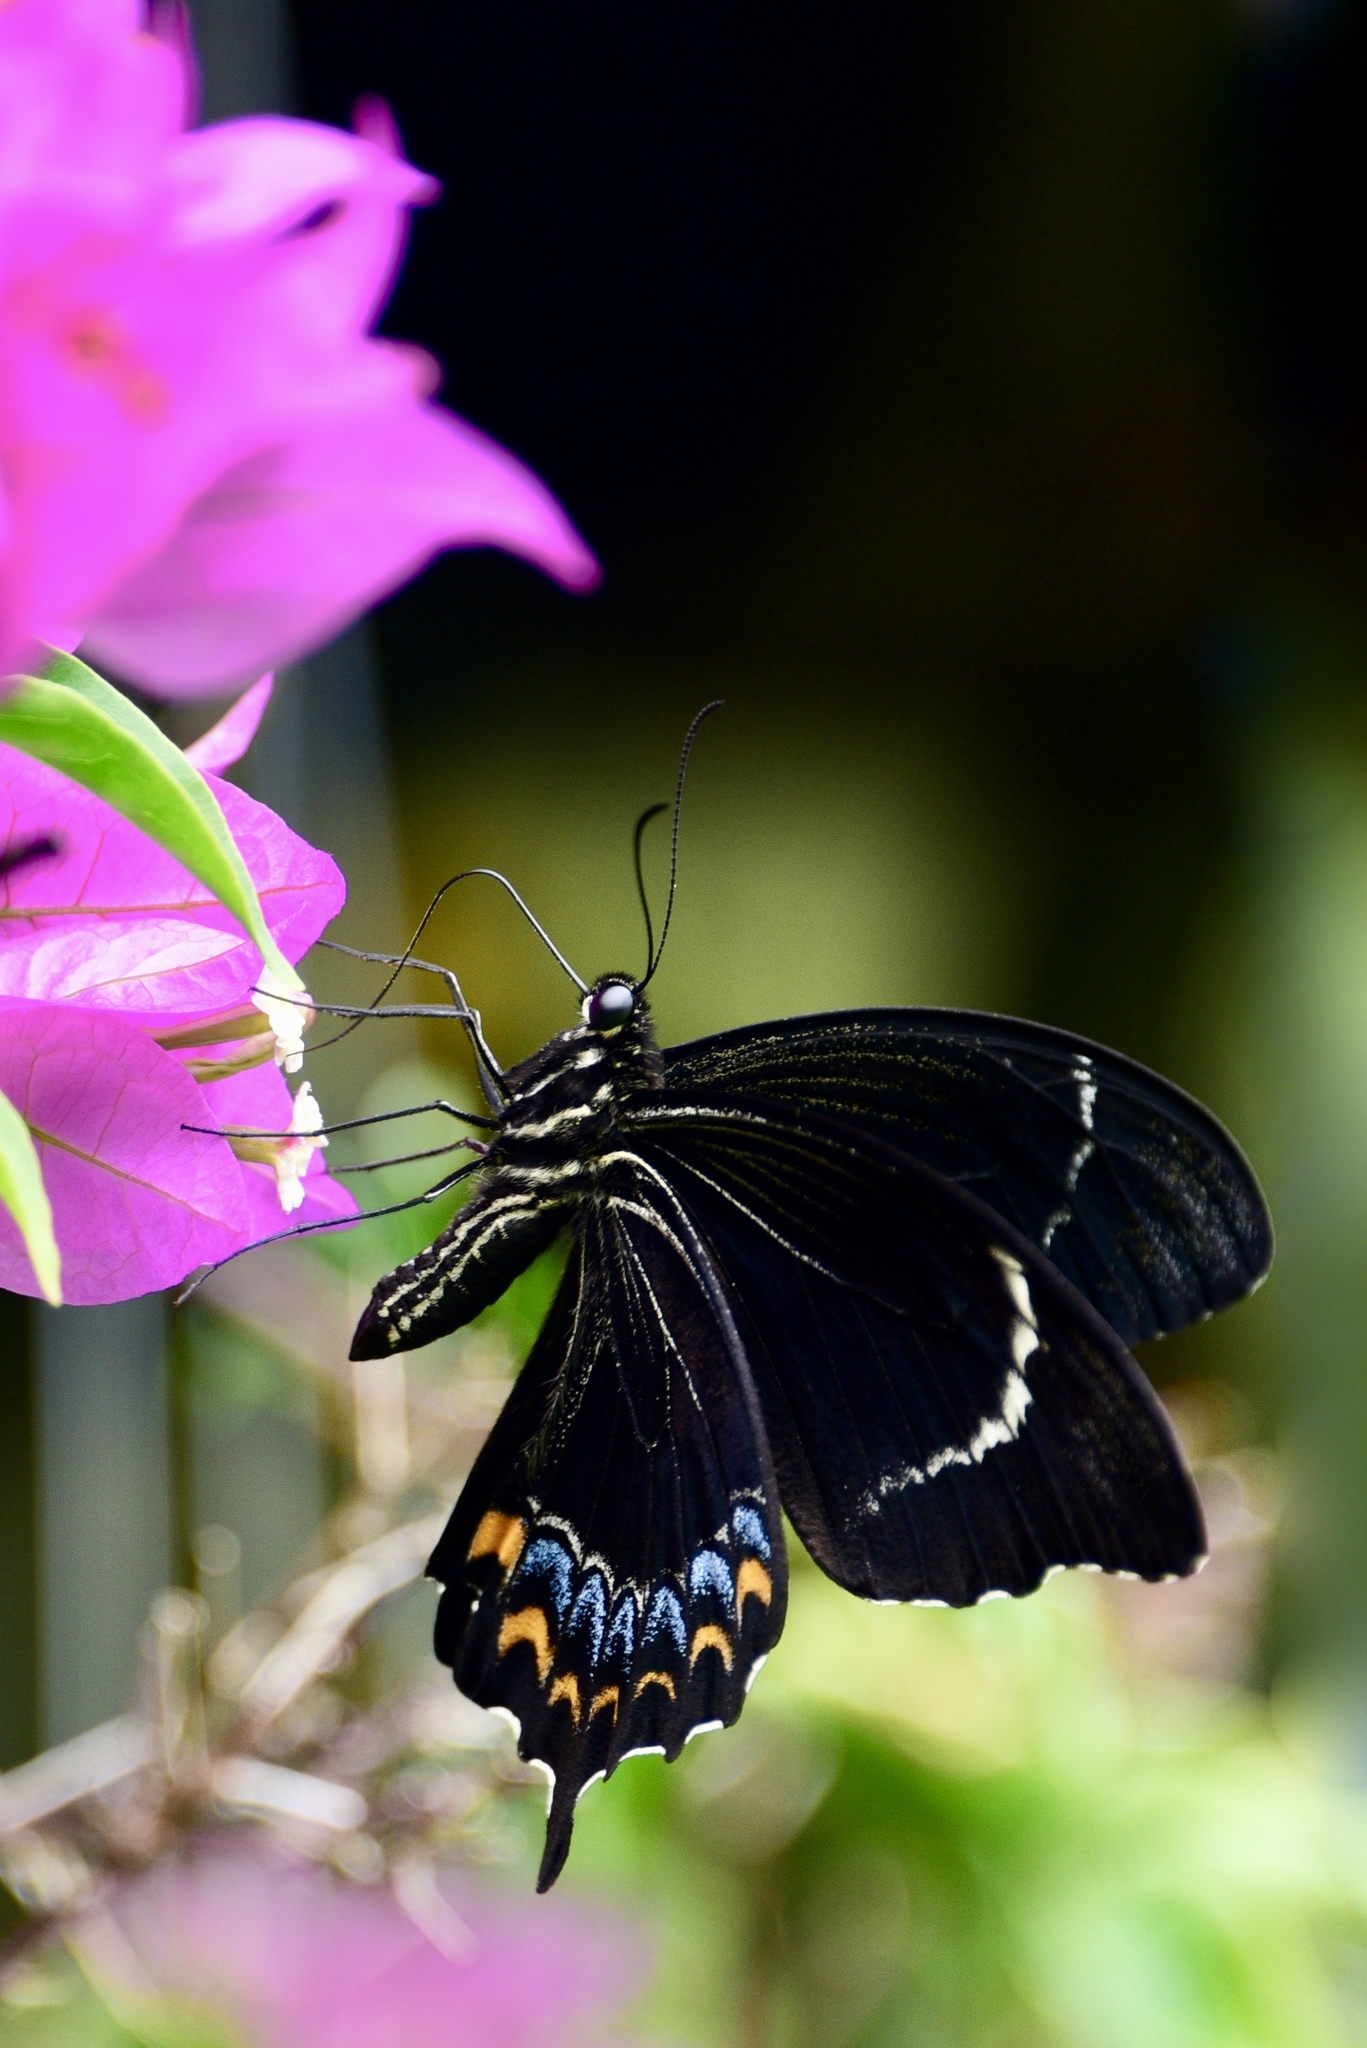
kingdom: Animalia
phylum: Arthropoda
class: Insecta
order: Lepidoptera
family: Papilionidae
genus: Papilio
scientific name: Papilio schmeltzi
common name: Fijian swallowtail
